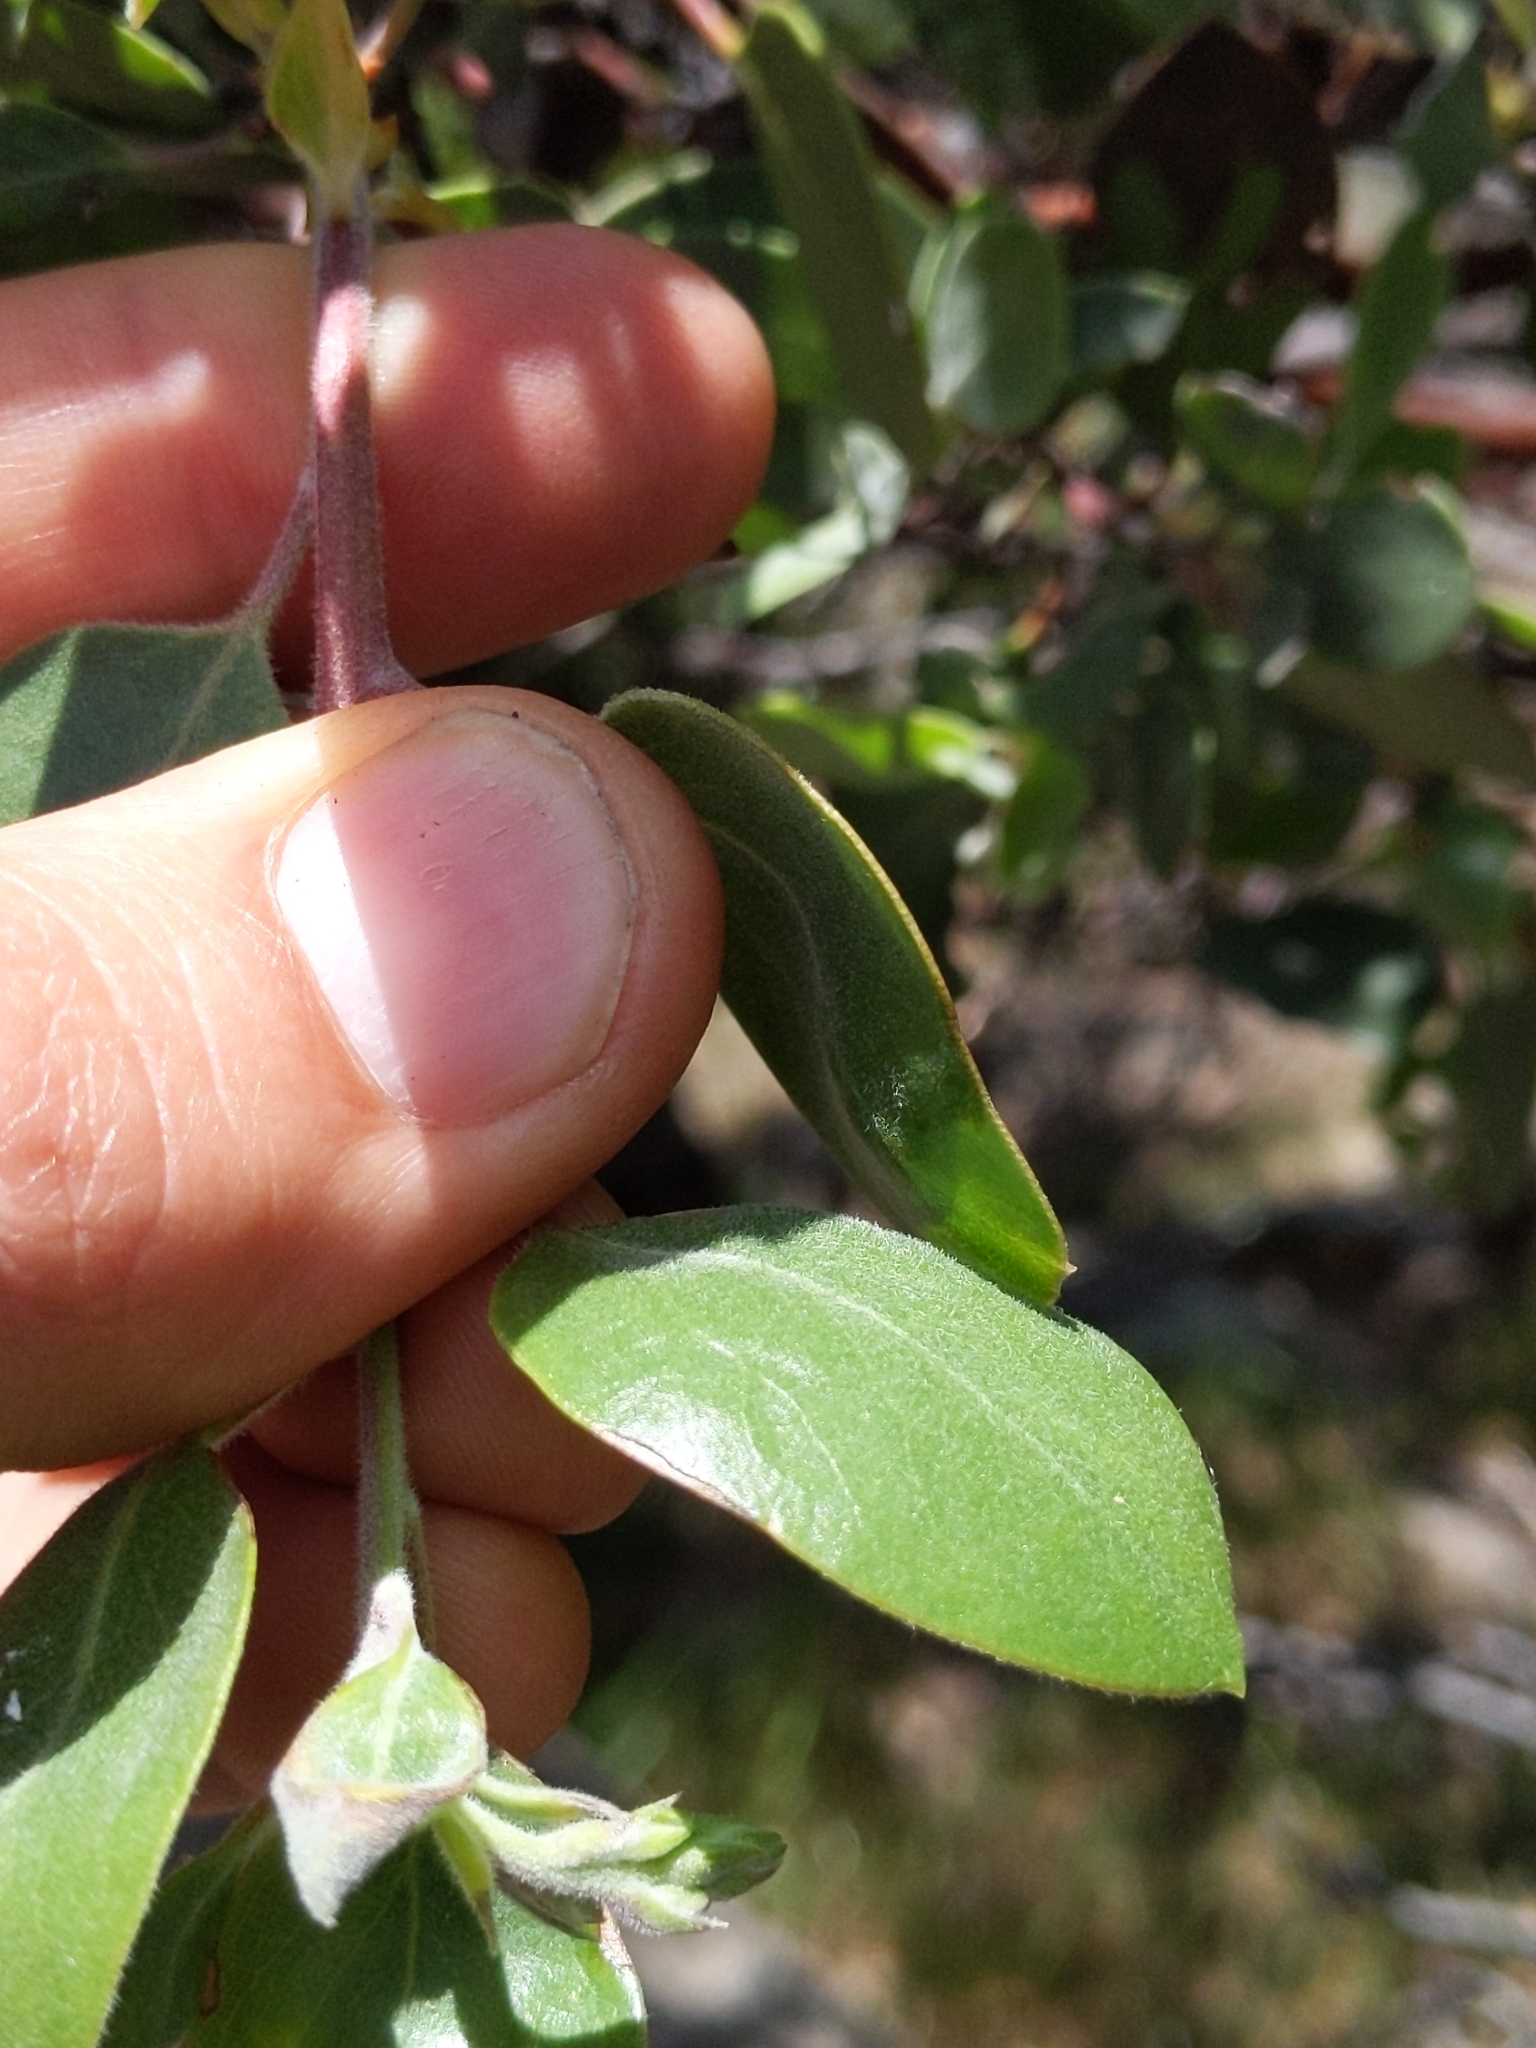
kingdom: Plantae
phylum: Tracheophyta
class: Magnoliopsida
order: Ericales
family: Ericaceae
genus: Arctostaphylos
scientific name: Arctostaphylos manzanita
